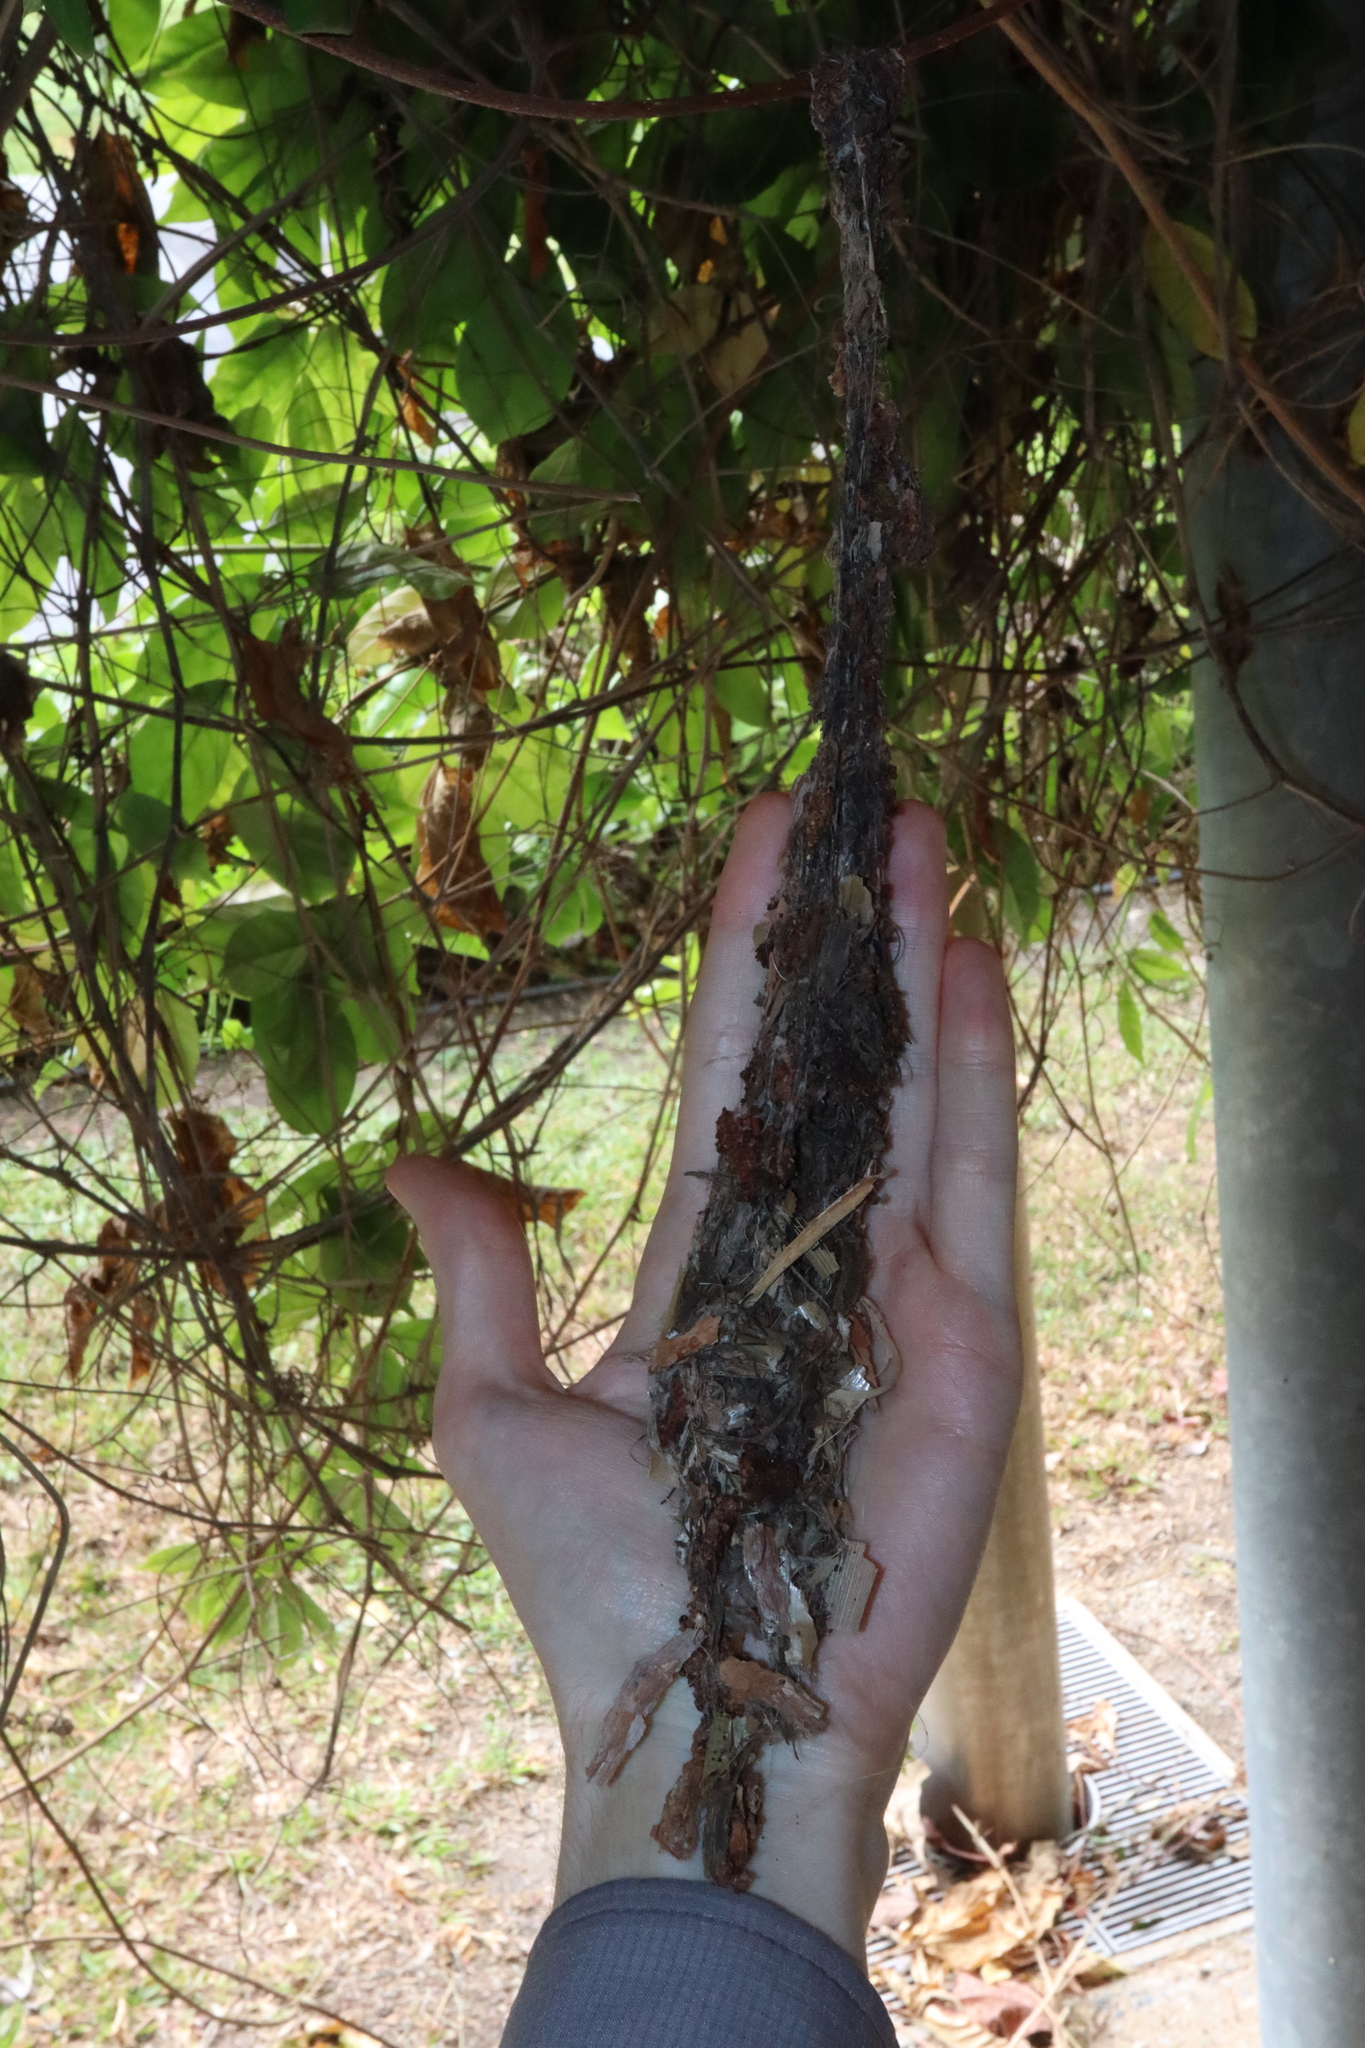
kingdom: Animalia
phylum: Chordata
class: Aves
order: Passeriformes
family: Nectariniidae
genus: Cinnyris
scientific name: Cinnyris
